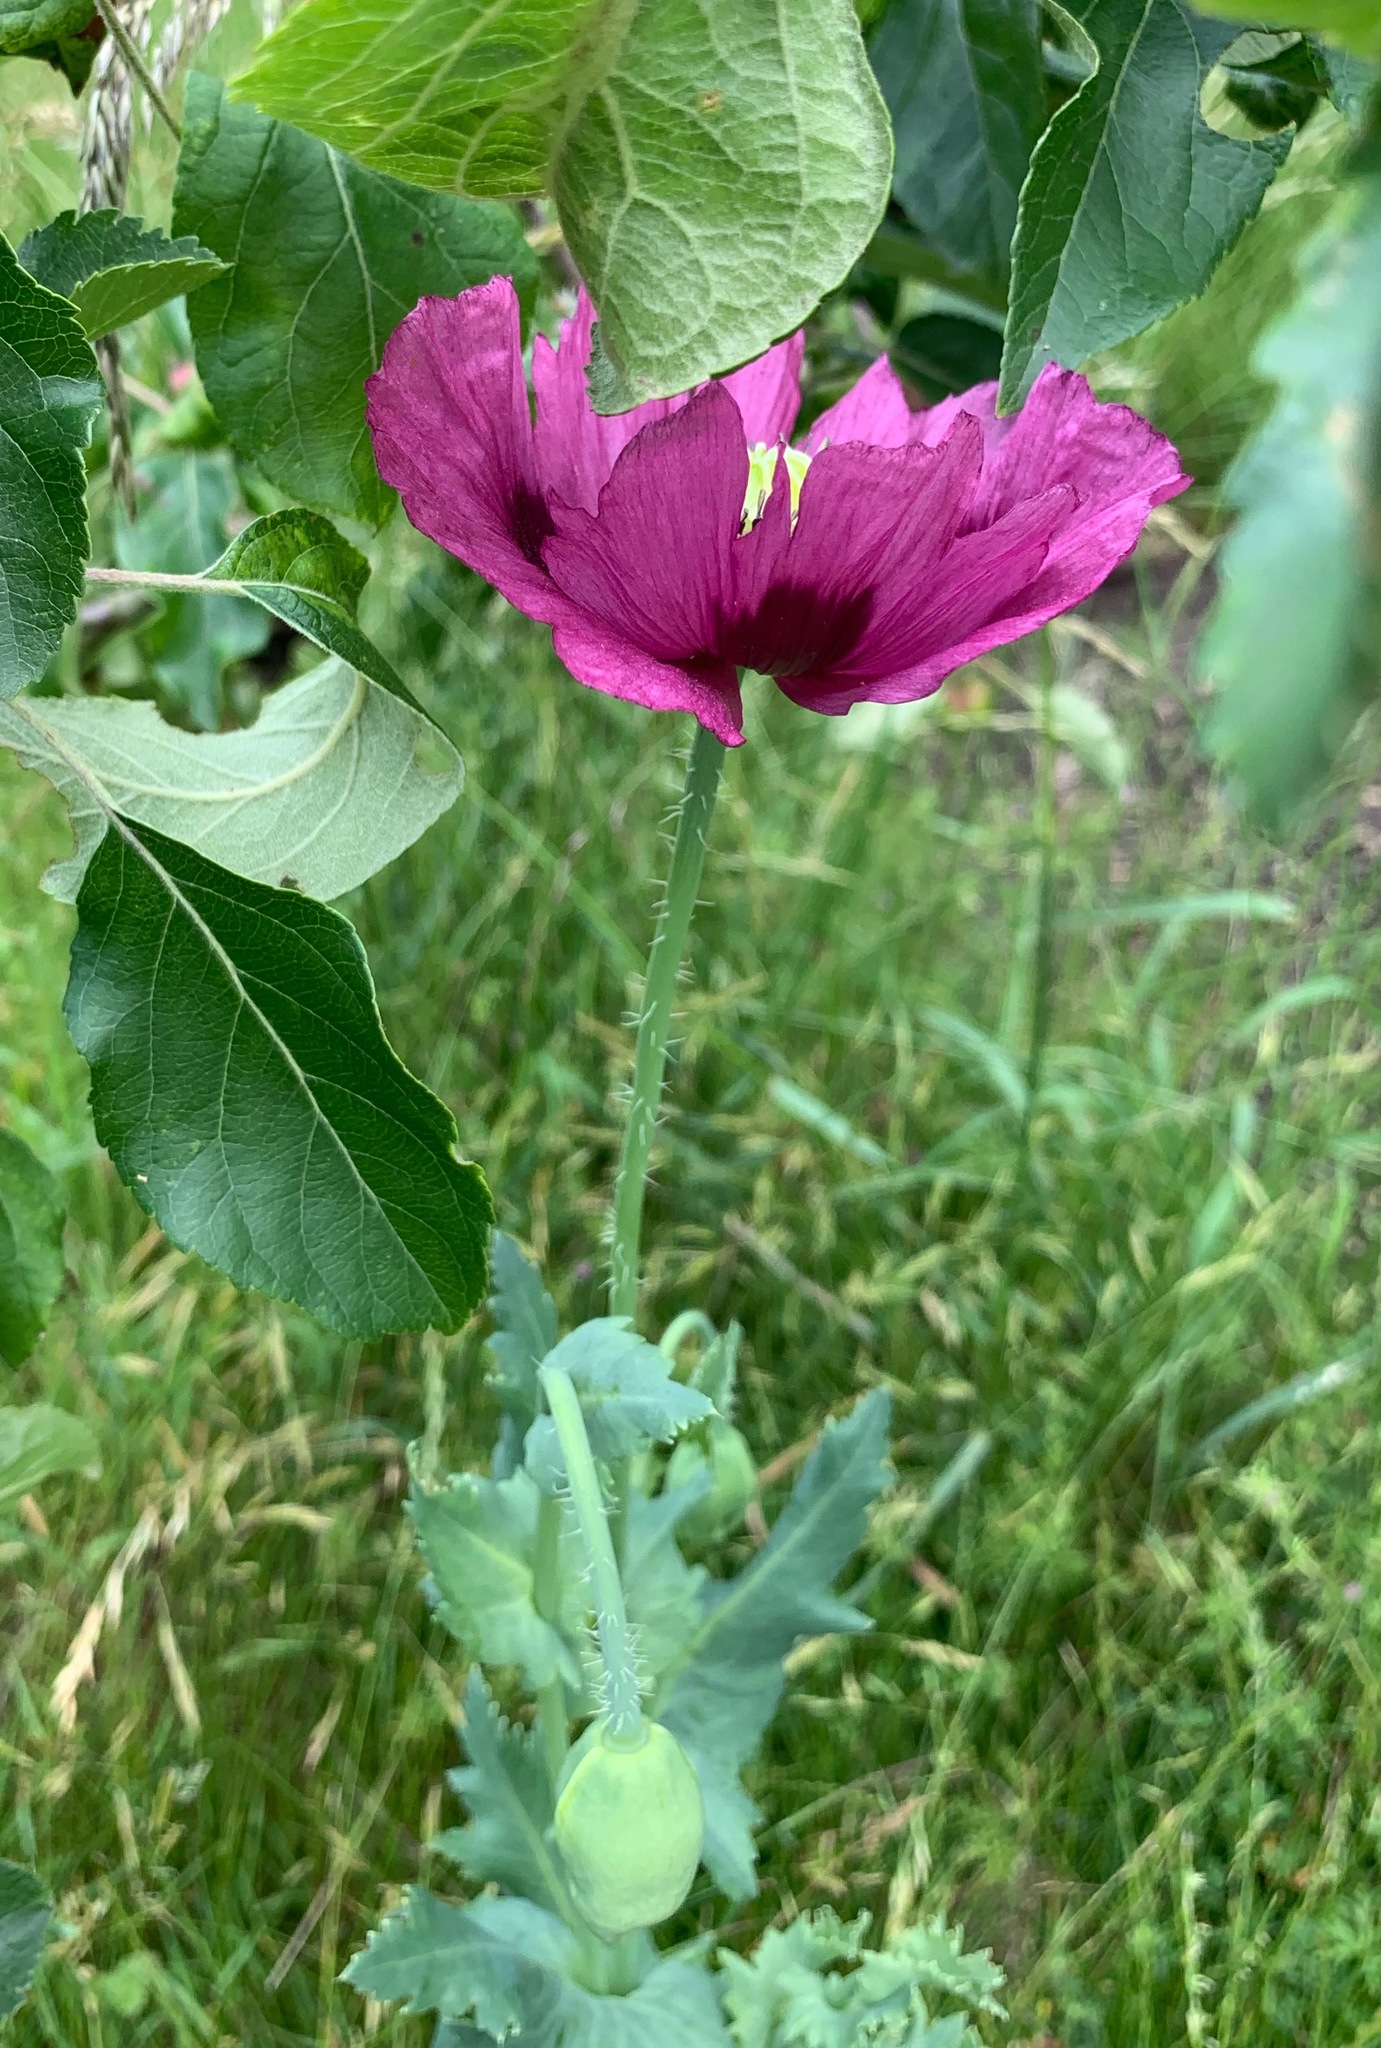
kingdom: Plantae
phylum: Tracheophyta
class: Magnoliopsida
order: Ranunculales
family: Papaveraceae
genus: Papaver
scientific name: Papaver somniferum
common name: Opium poppy
